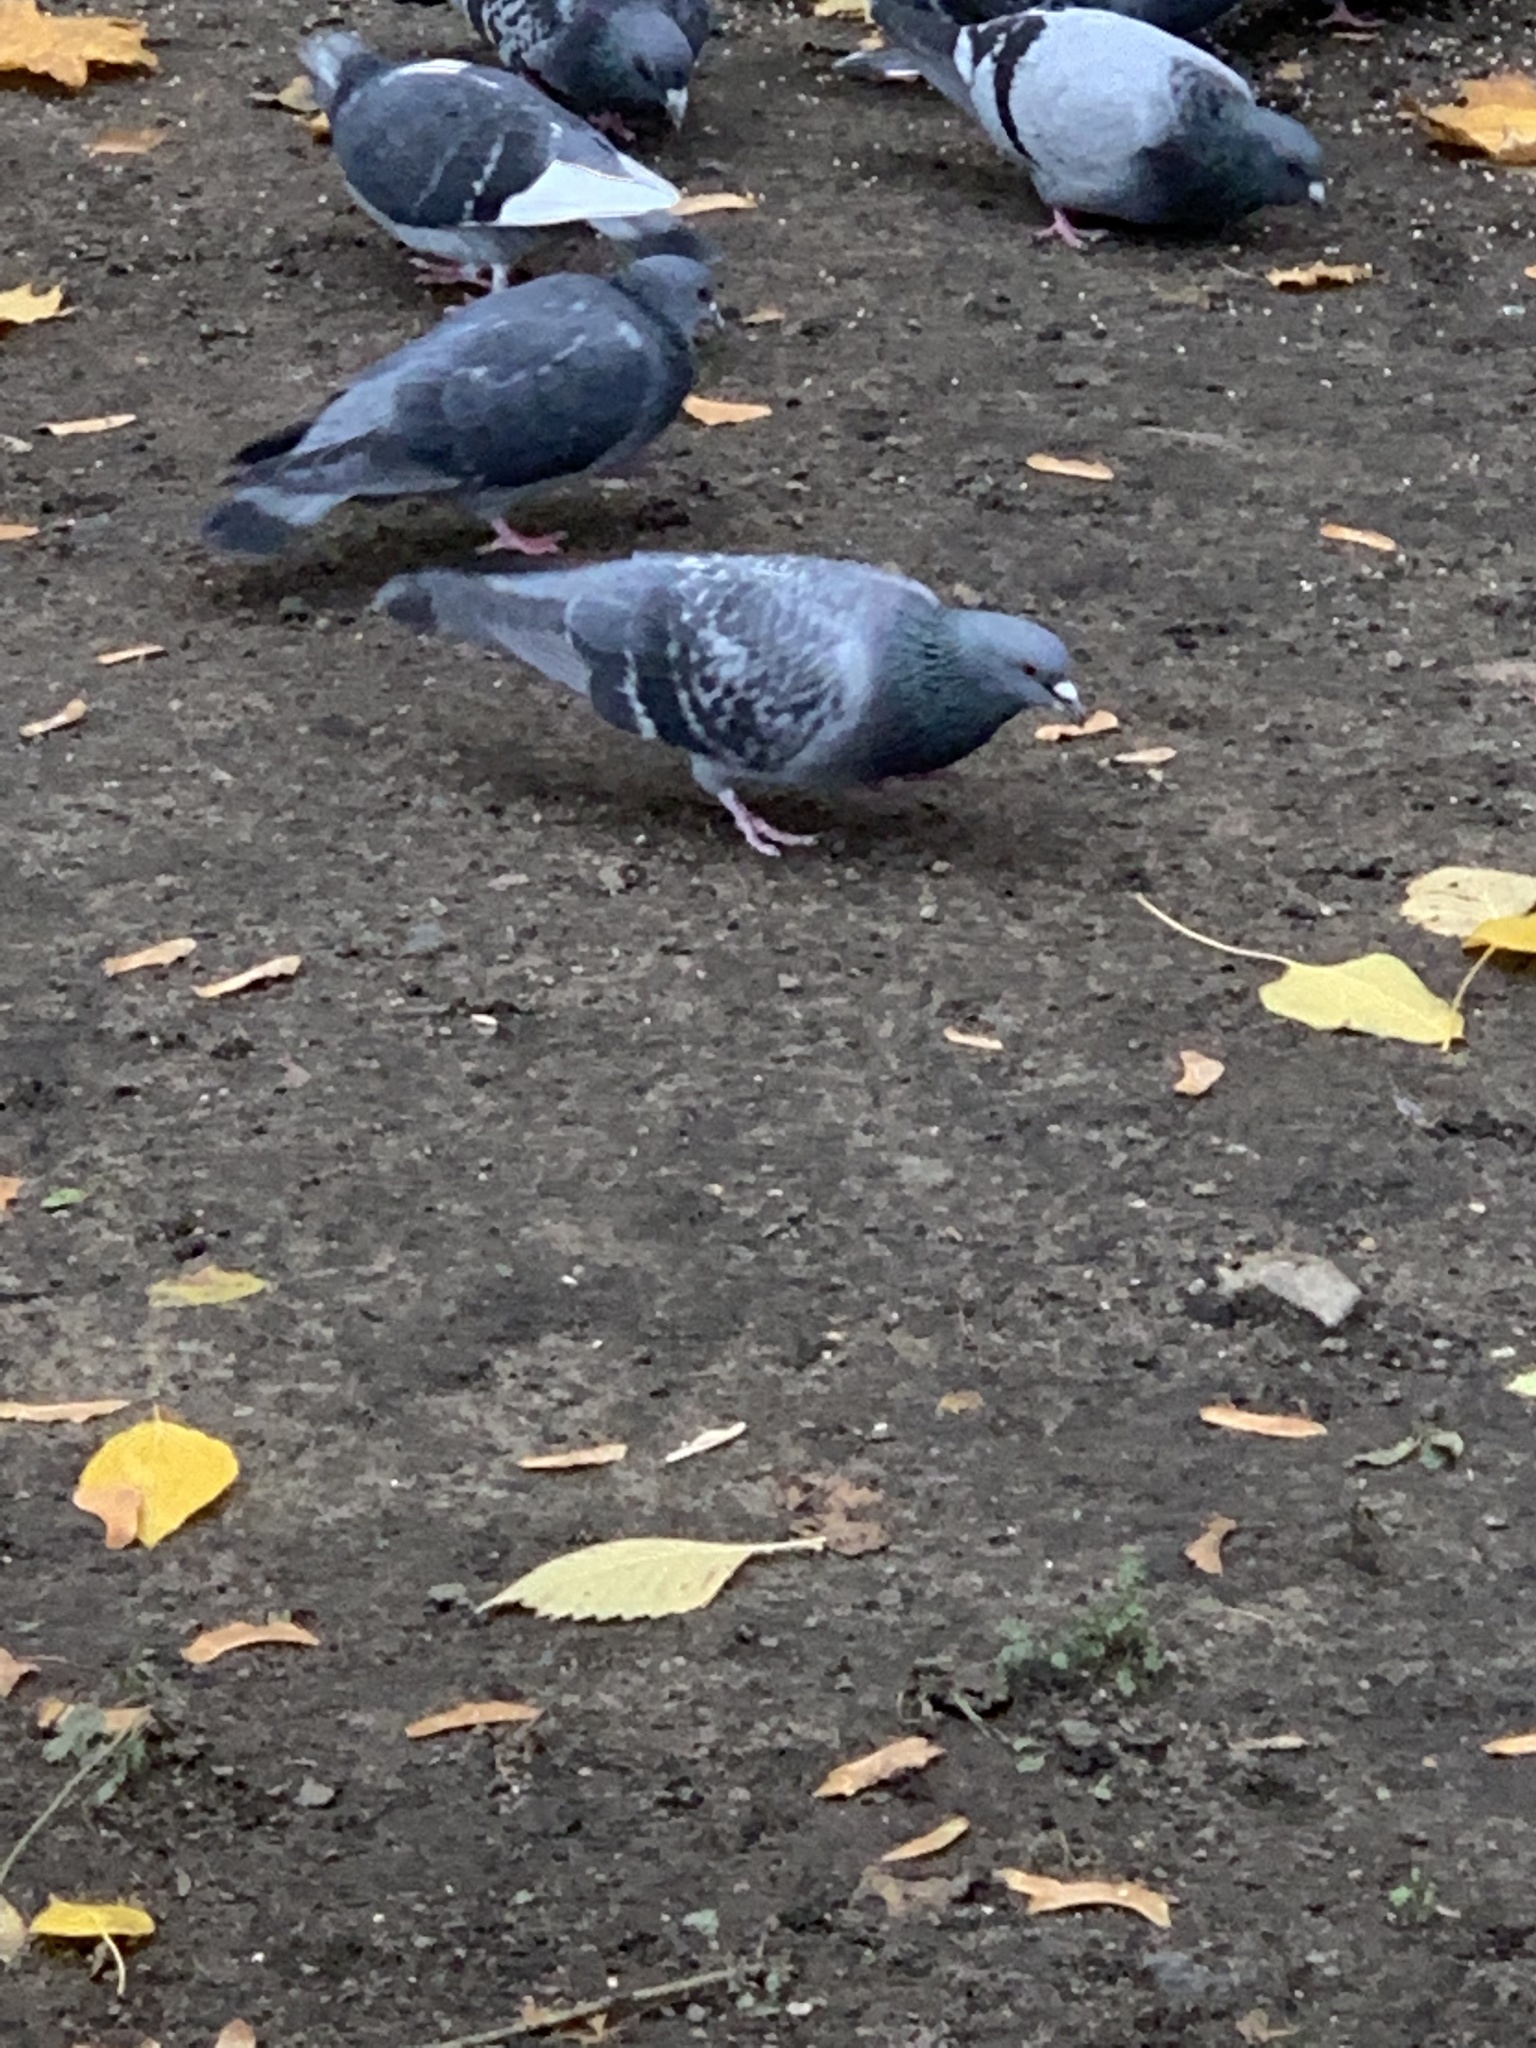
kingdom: Animalia
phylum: Chordata
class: Aves
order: Columbiformes
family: Columbidae
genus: Columba
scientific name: Columba livia
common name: Rock pigeon
